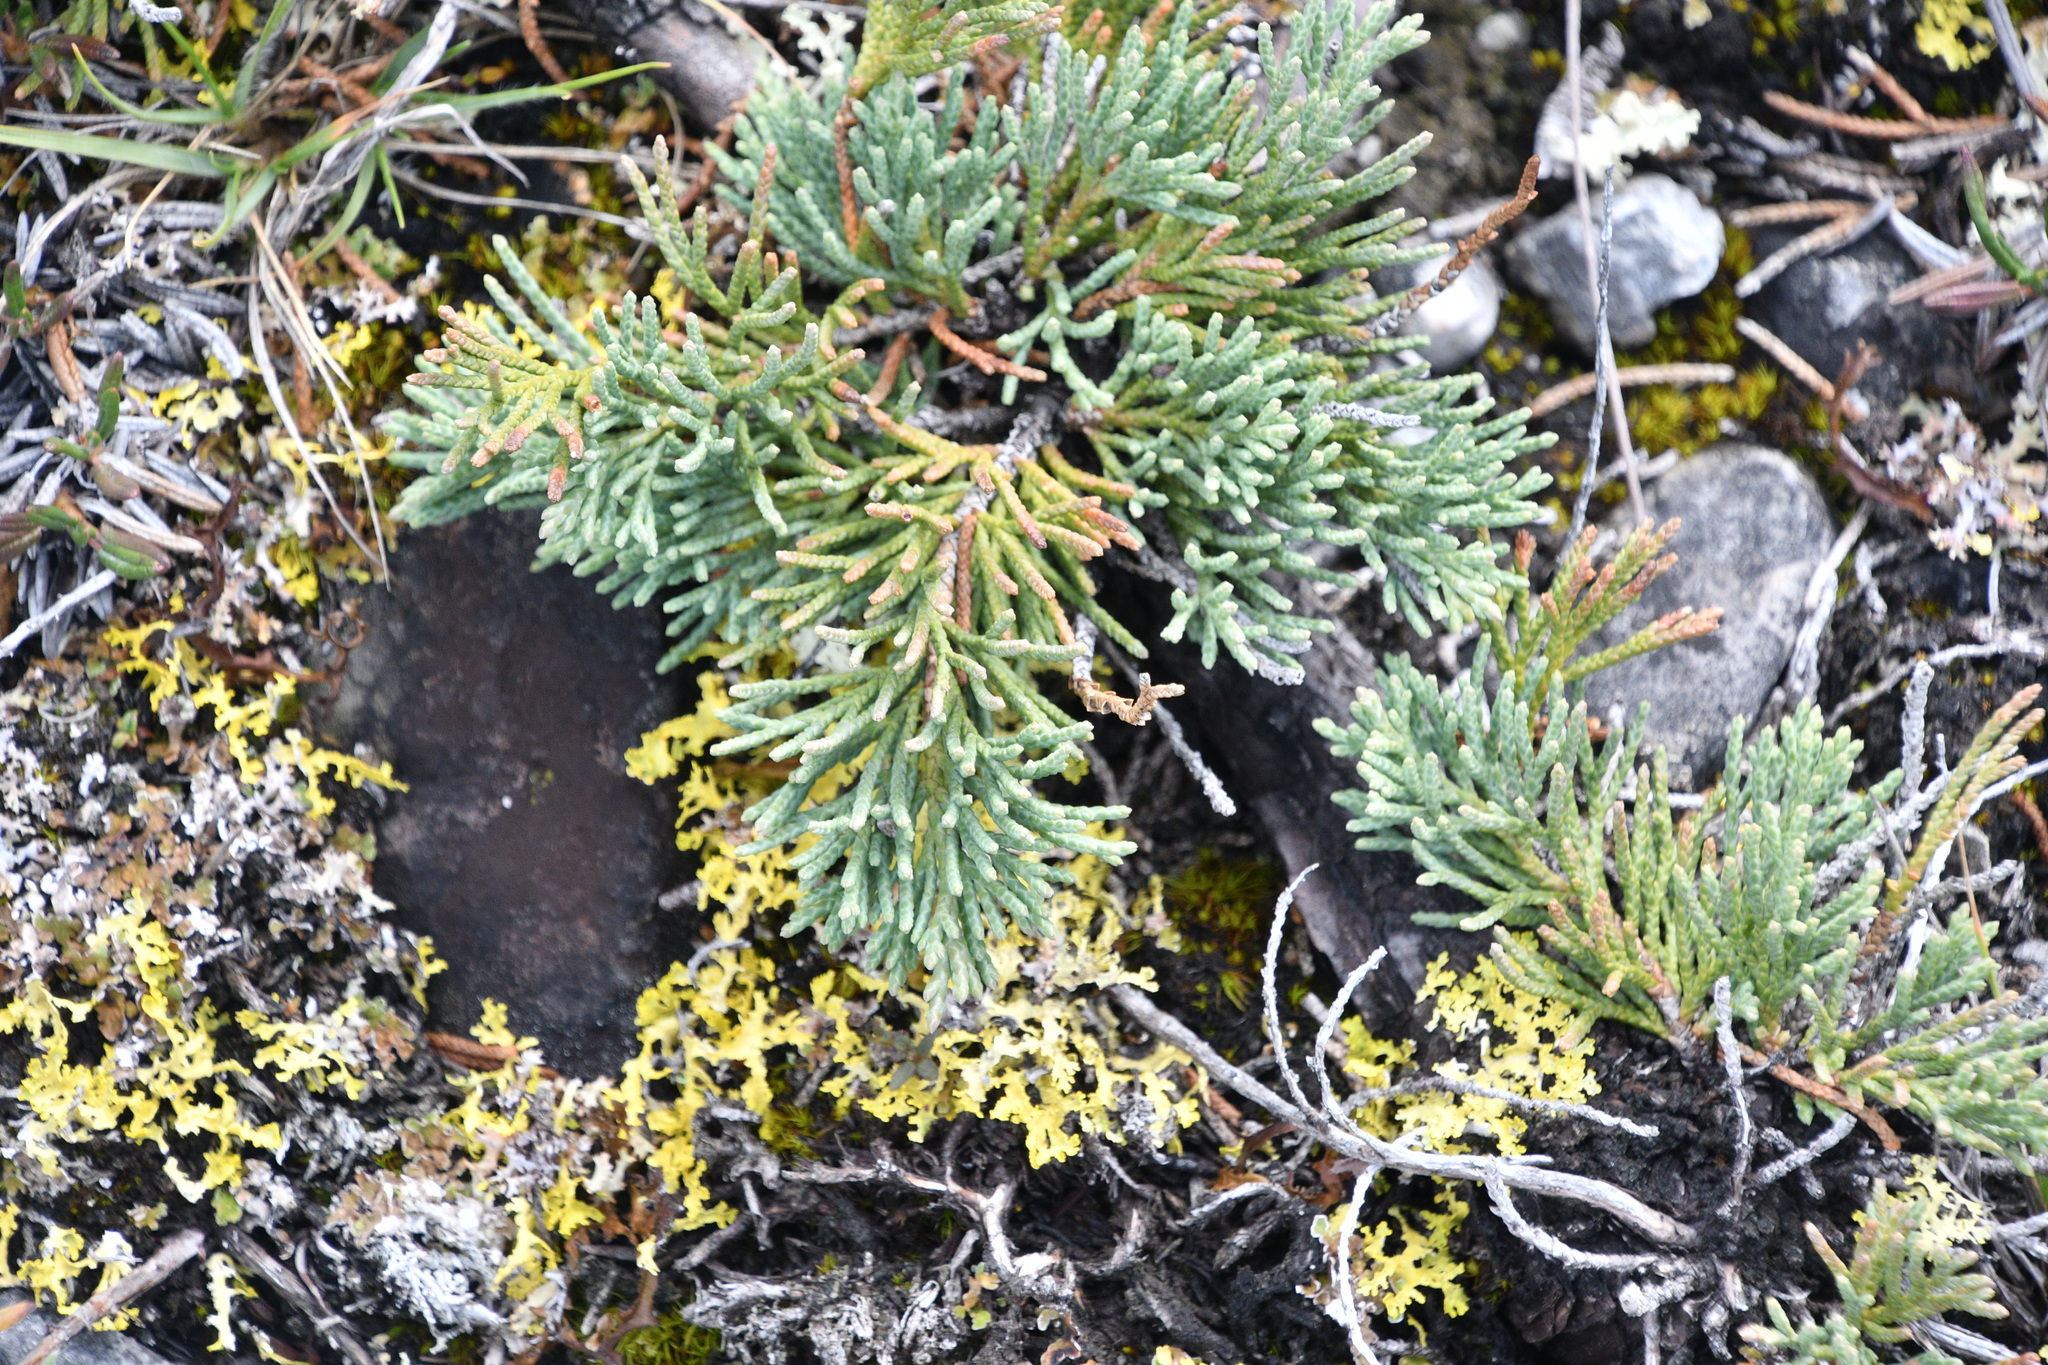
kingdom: Plantae
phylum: Tracheophyta
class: Pinopsida
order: Pinales
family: Cupressaceae
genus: Juniperus
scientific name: Juniperus horizontalis
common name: Creeping juniper
